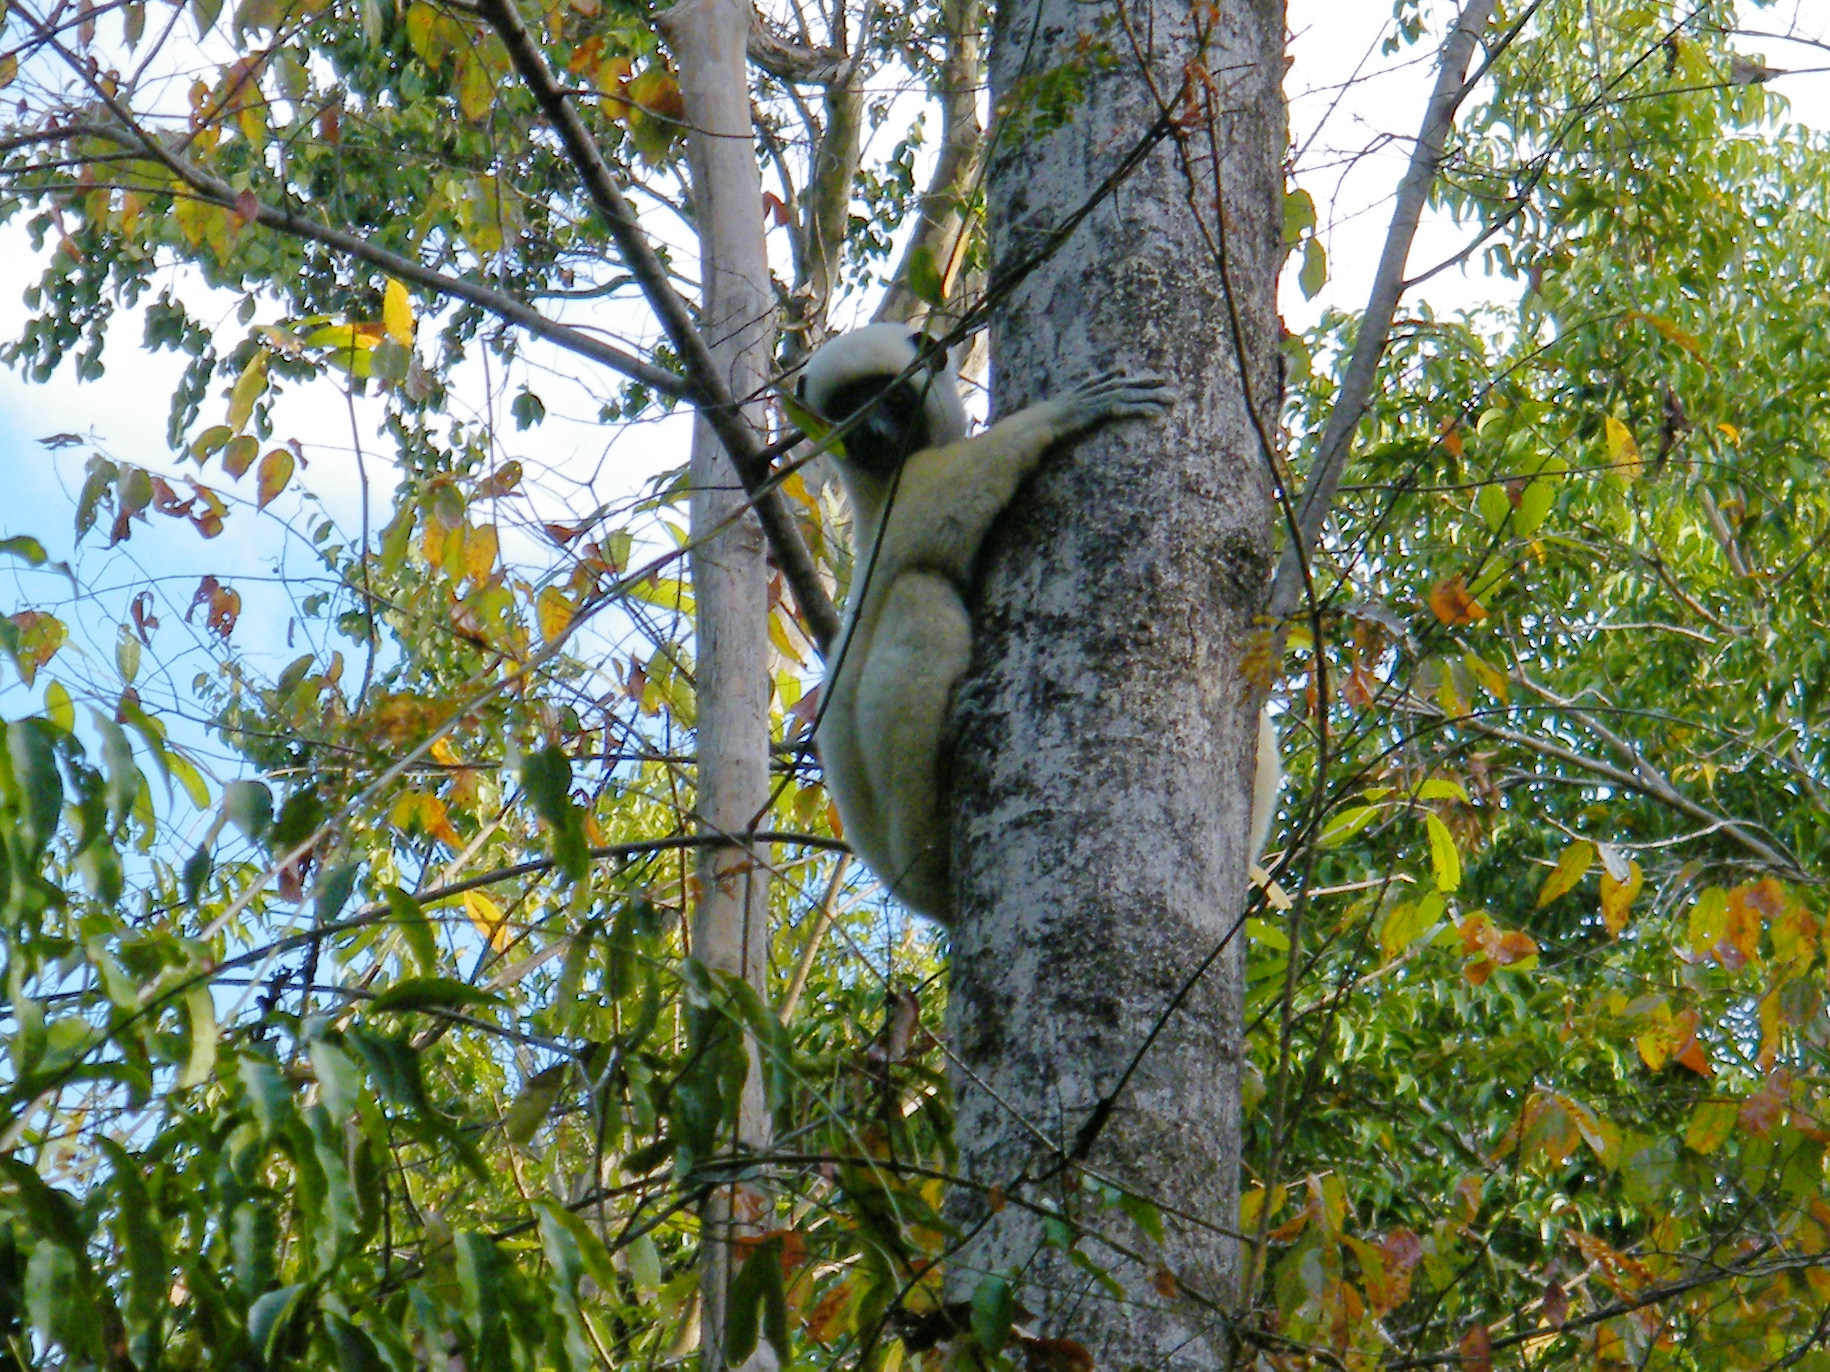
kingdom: Animalia
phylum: Chordata
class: Mammalia
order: Primates
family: Indriidae
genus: Propithecus
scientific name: Propithecus deckenii
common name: Decken's sifaka
